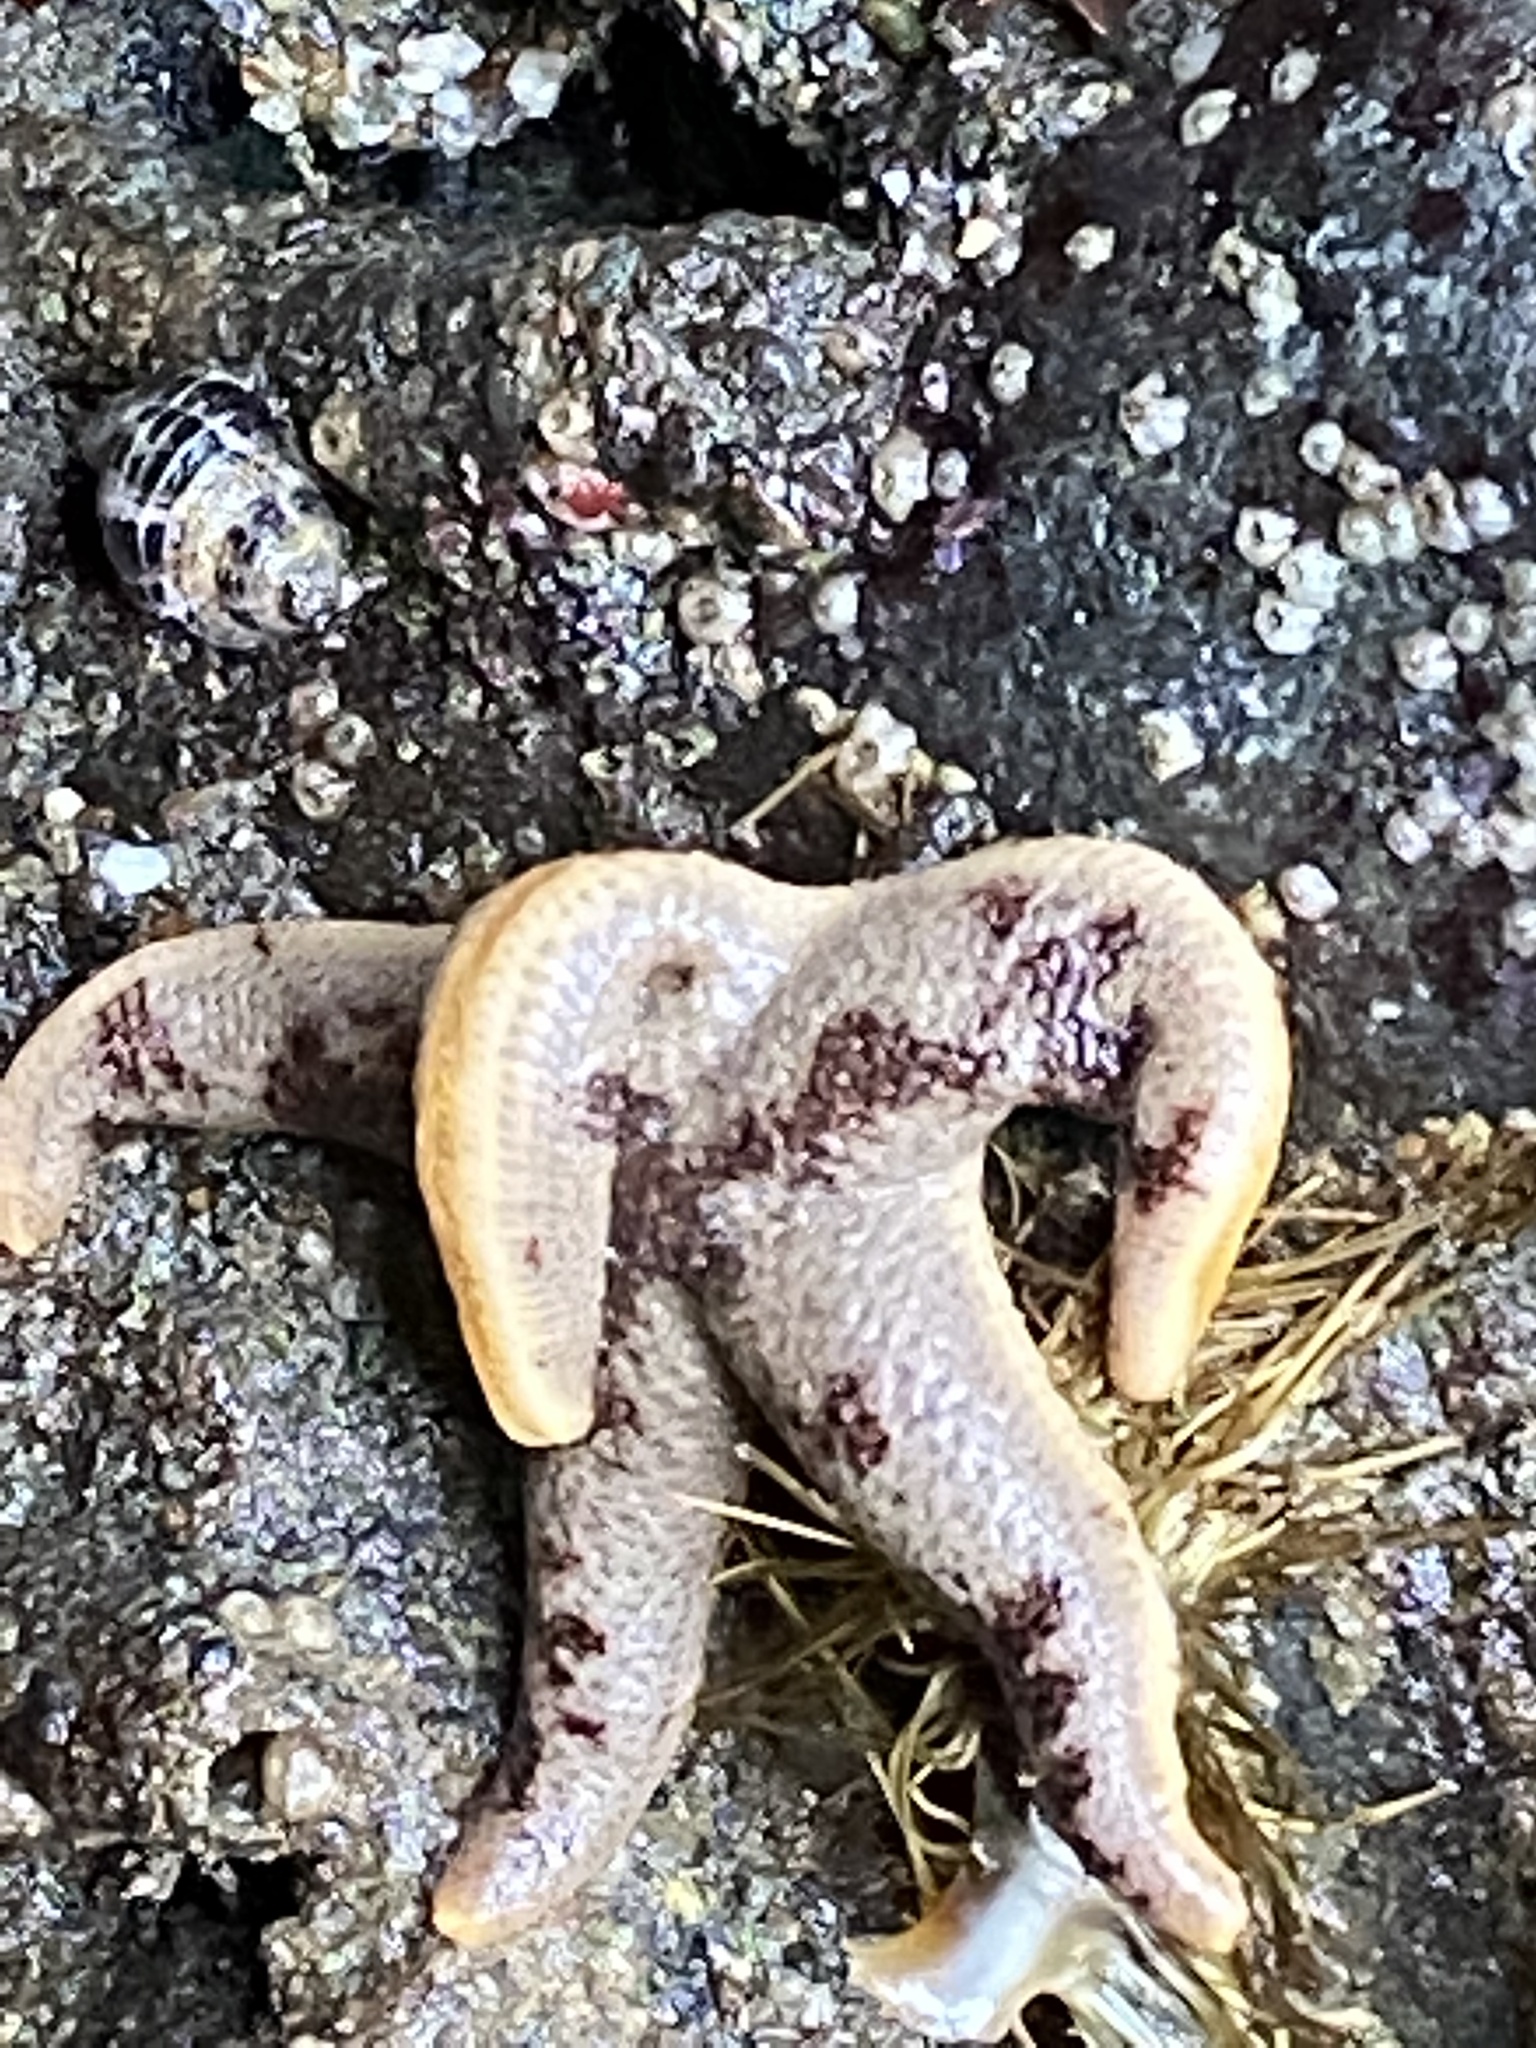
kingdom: Animalia
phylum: Echinodermata
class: Asteroidea
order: Spinulosida
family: Echinasteridae
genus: Henricia
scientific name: Henricia pumila
